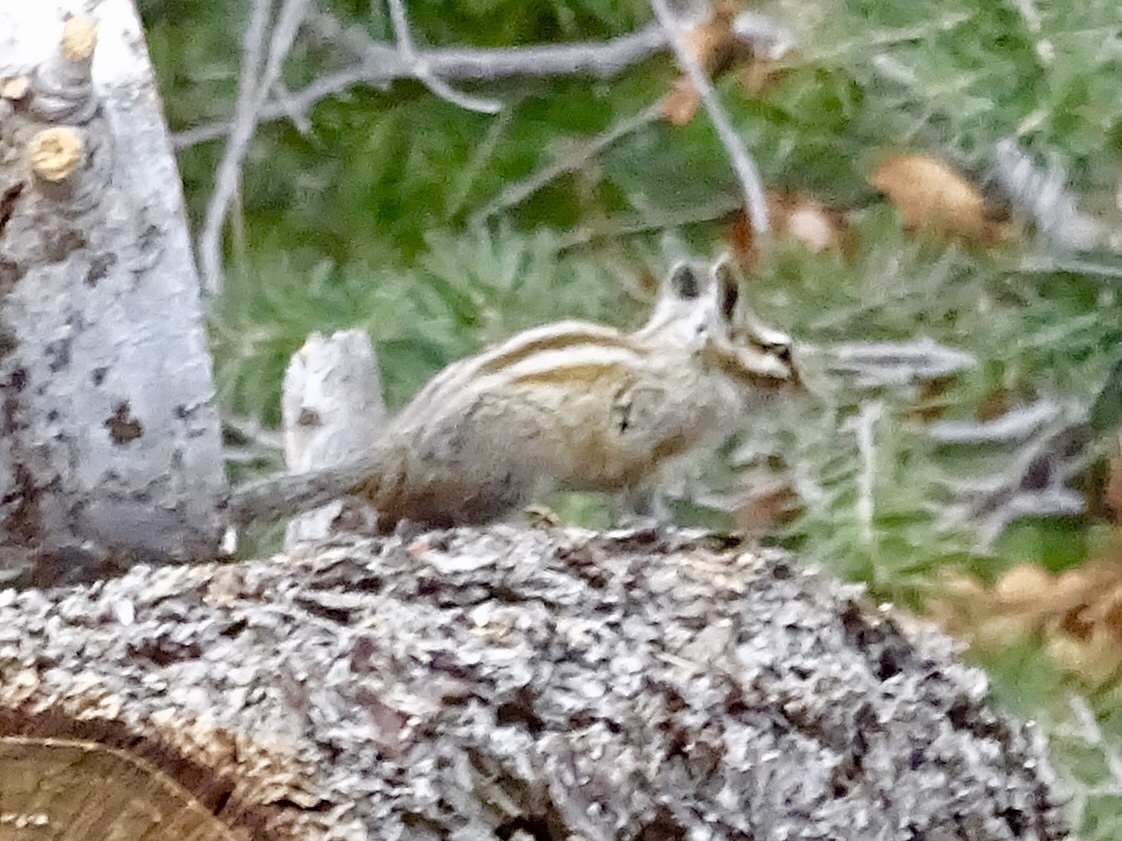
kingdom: Animalia
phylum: Chordata
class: Mammalia
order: Rodentia
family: Sciuridae
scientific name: Sciuridae
